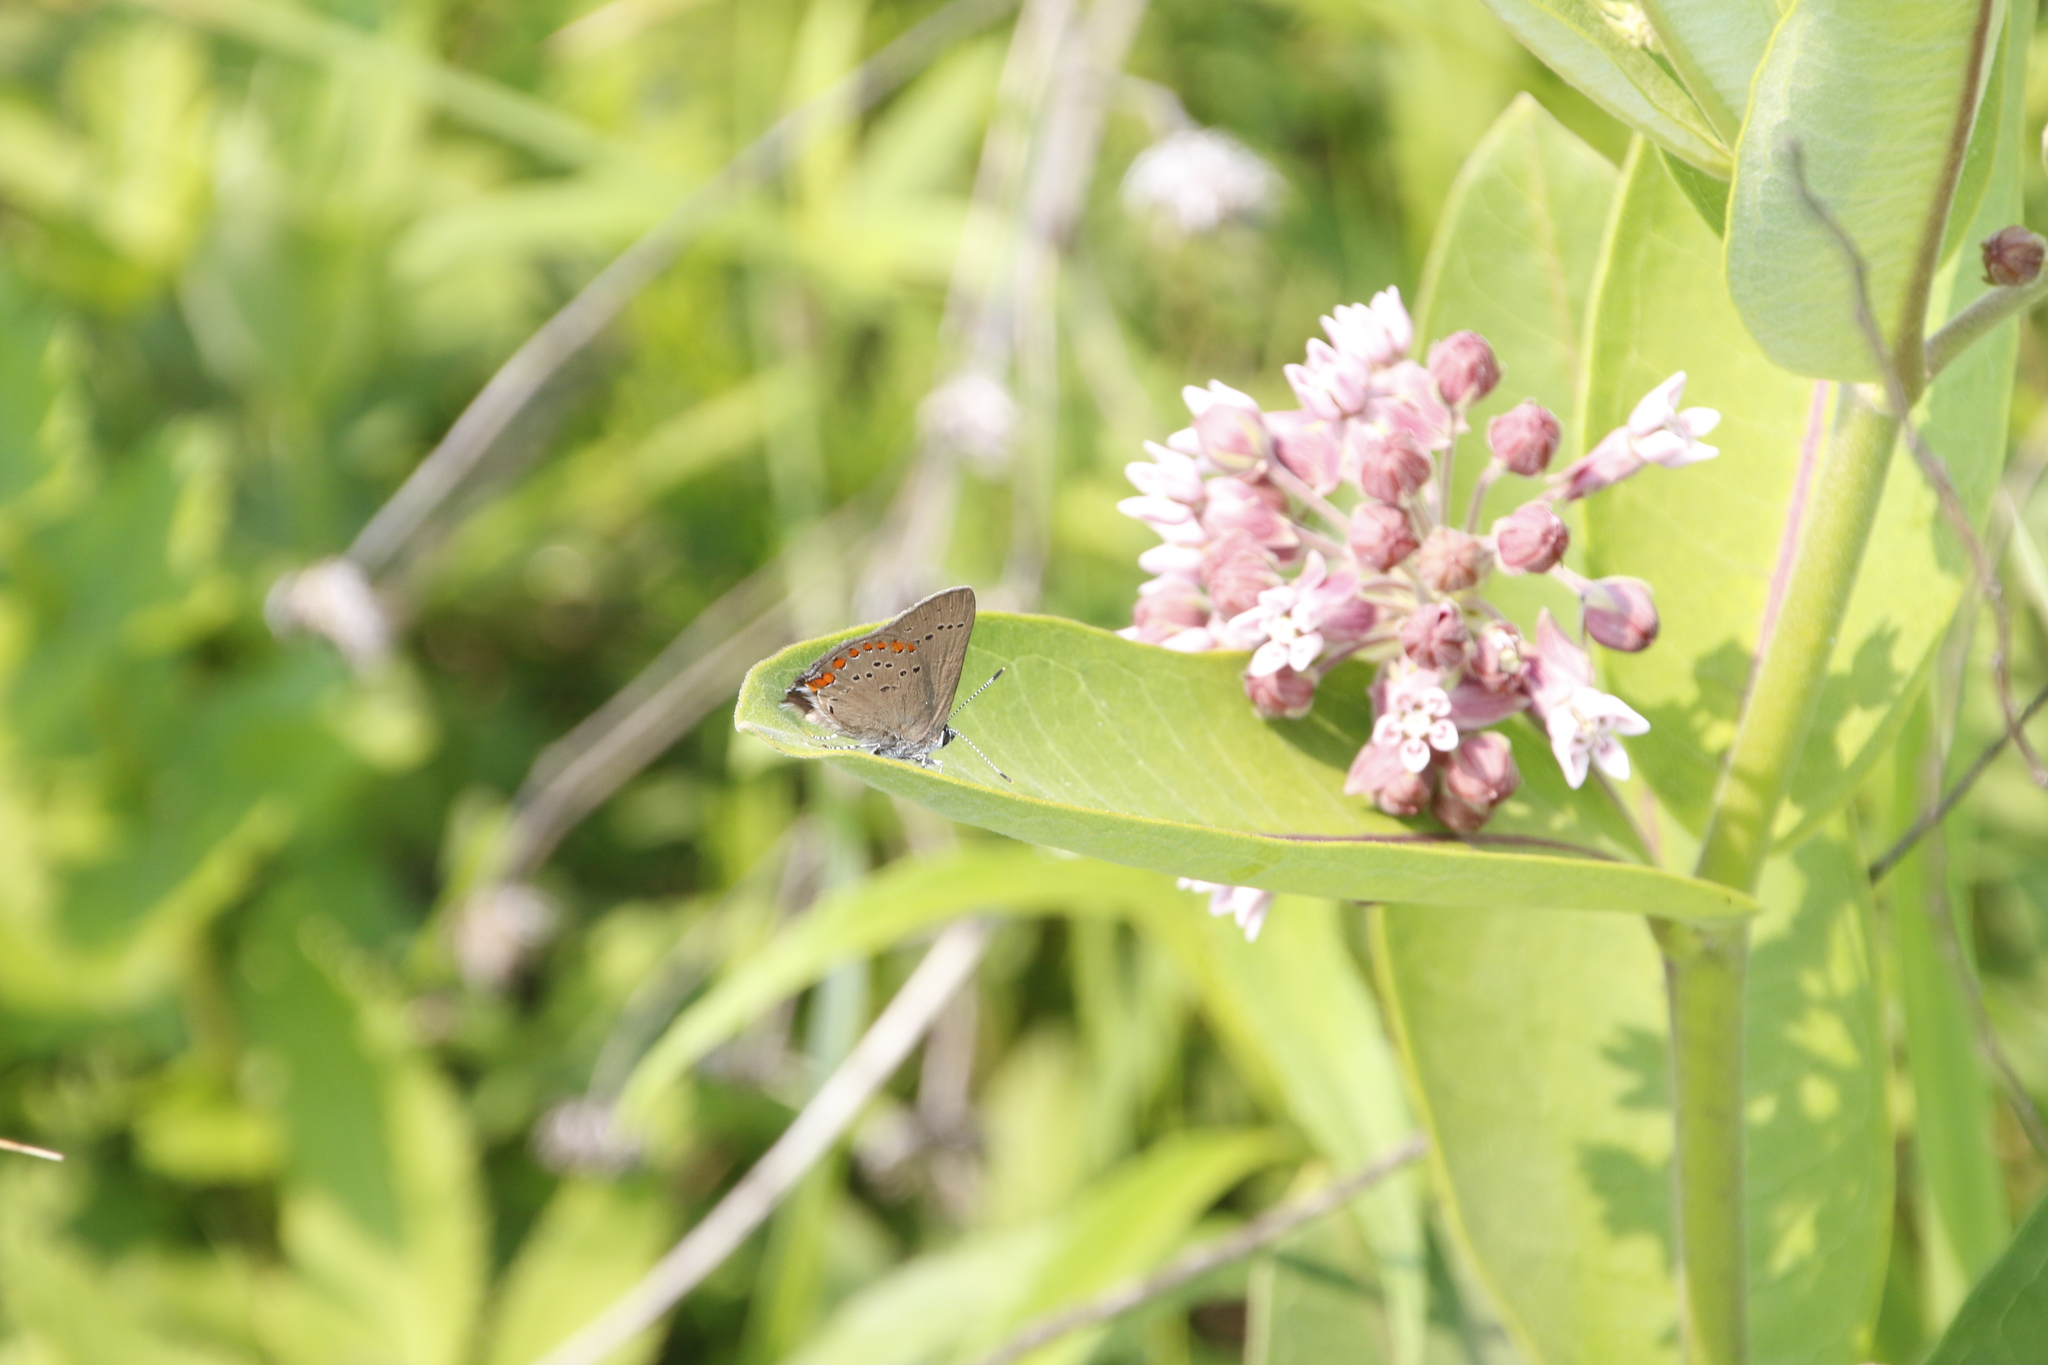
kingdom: Animalia
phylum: Arthropoda
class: Insecta
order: Lepidoptera
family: Lycaenidae
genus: Harkenclenus
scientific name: Harkenclenus titus
